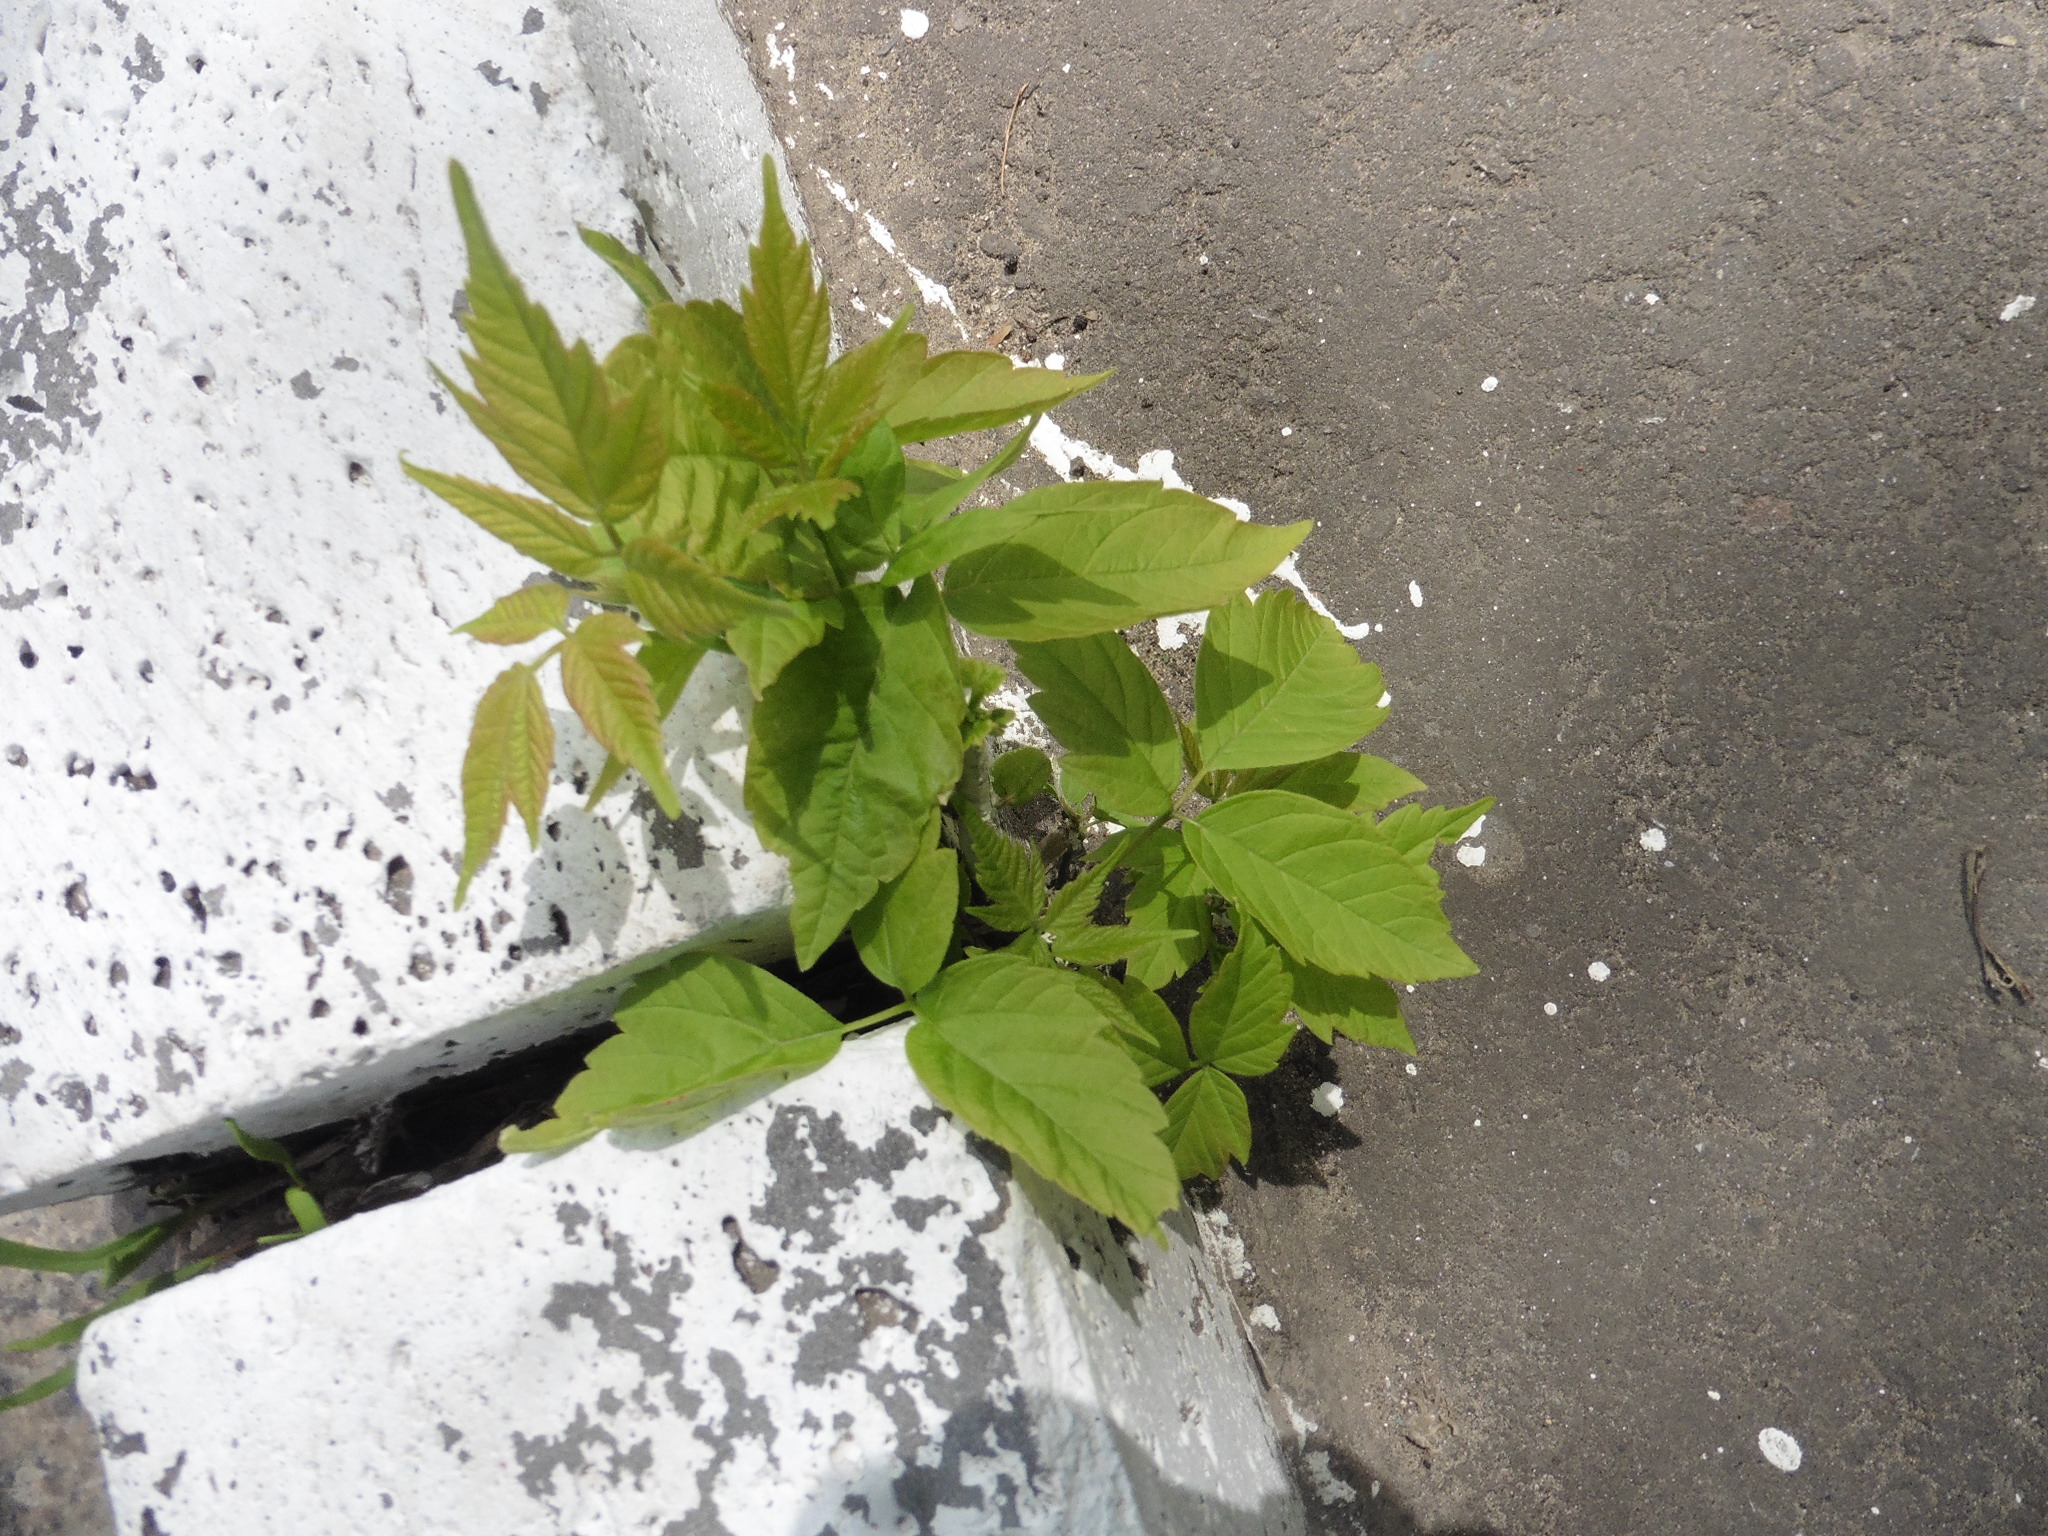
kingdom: Plantae
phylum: Tracheophyta
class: Magnoliopsida
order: Sapindales
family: Sapindaceae
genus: Acer
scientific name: Acer negundo
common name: Ashleaf maple
